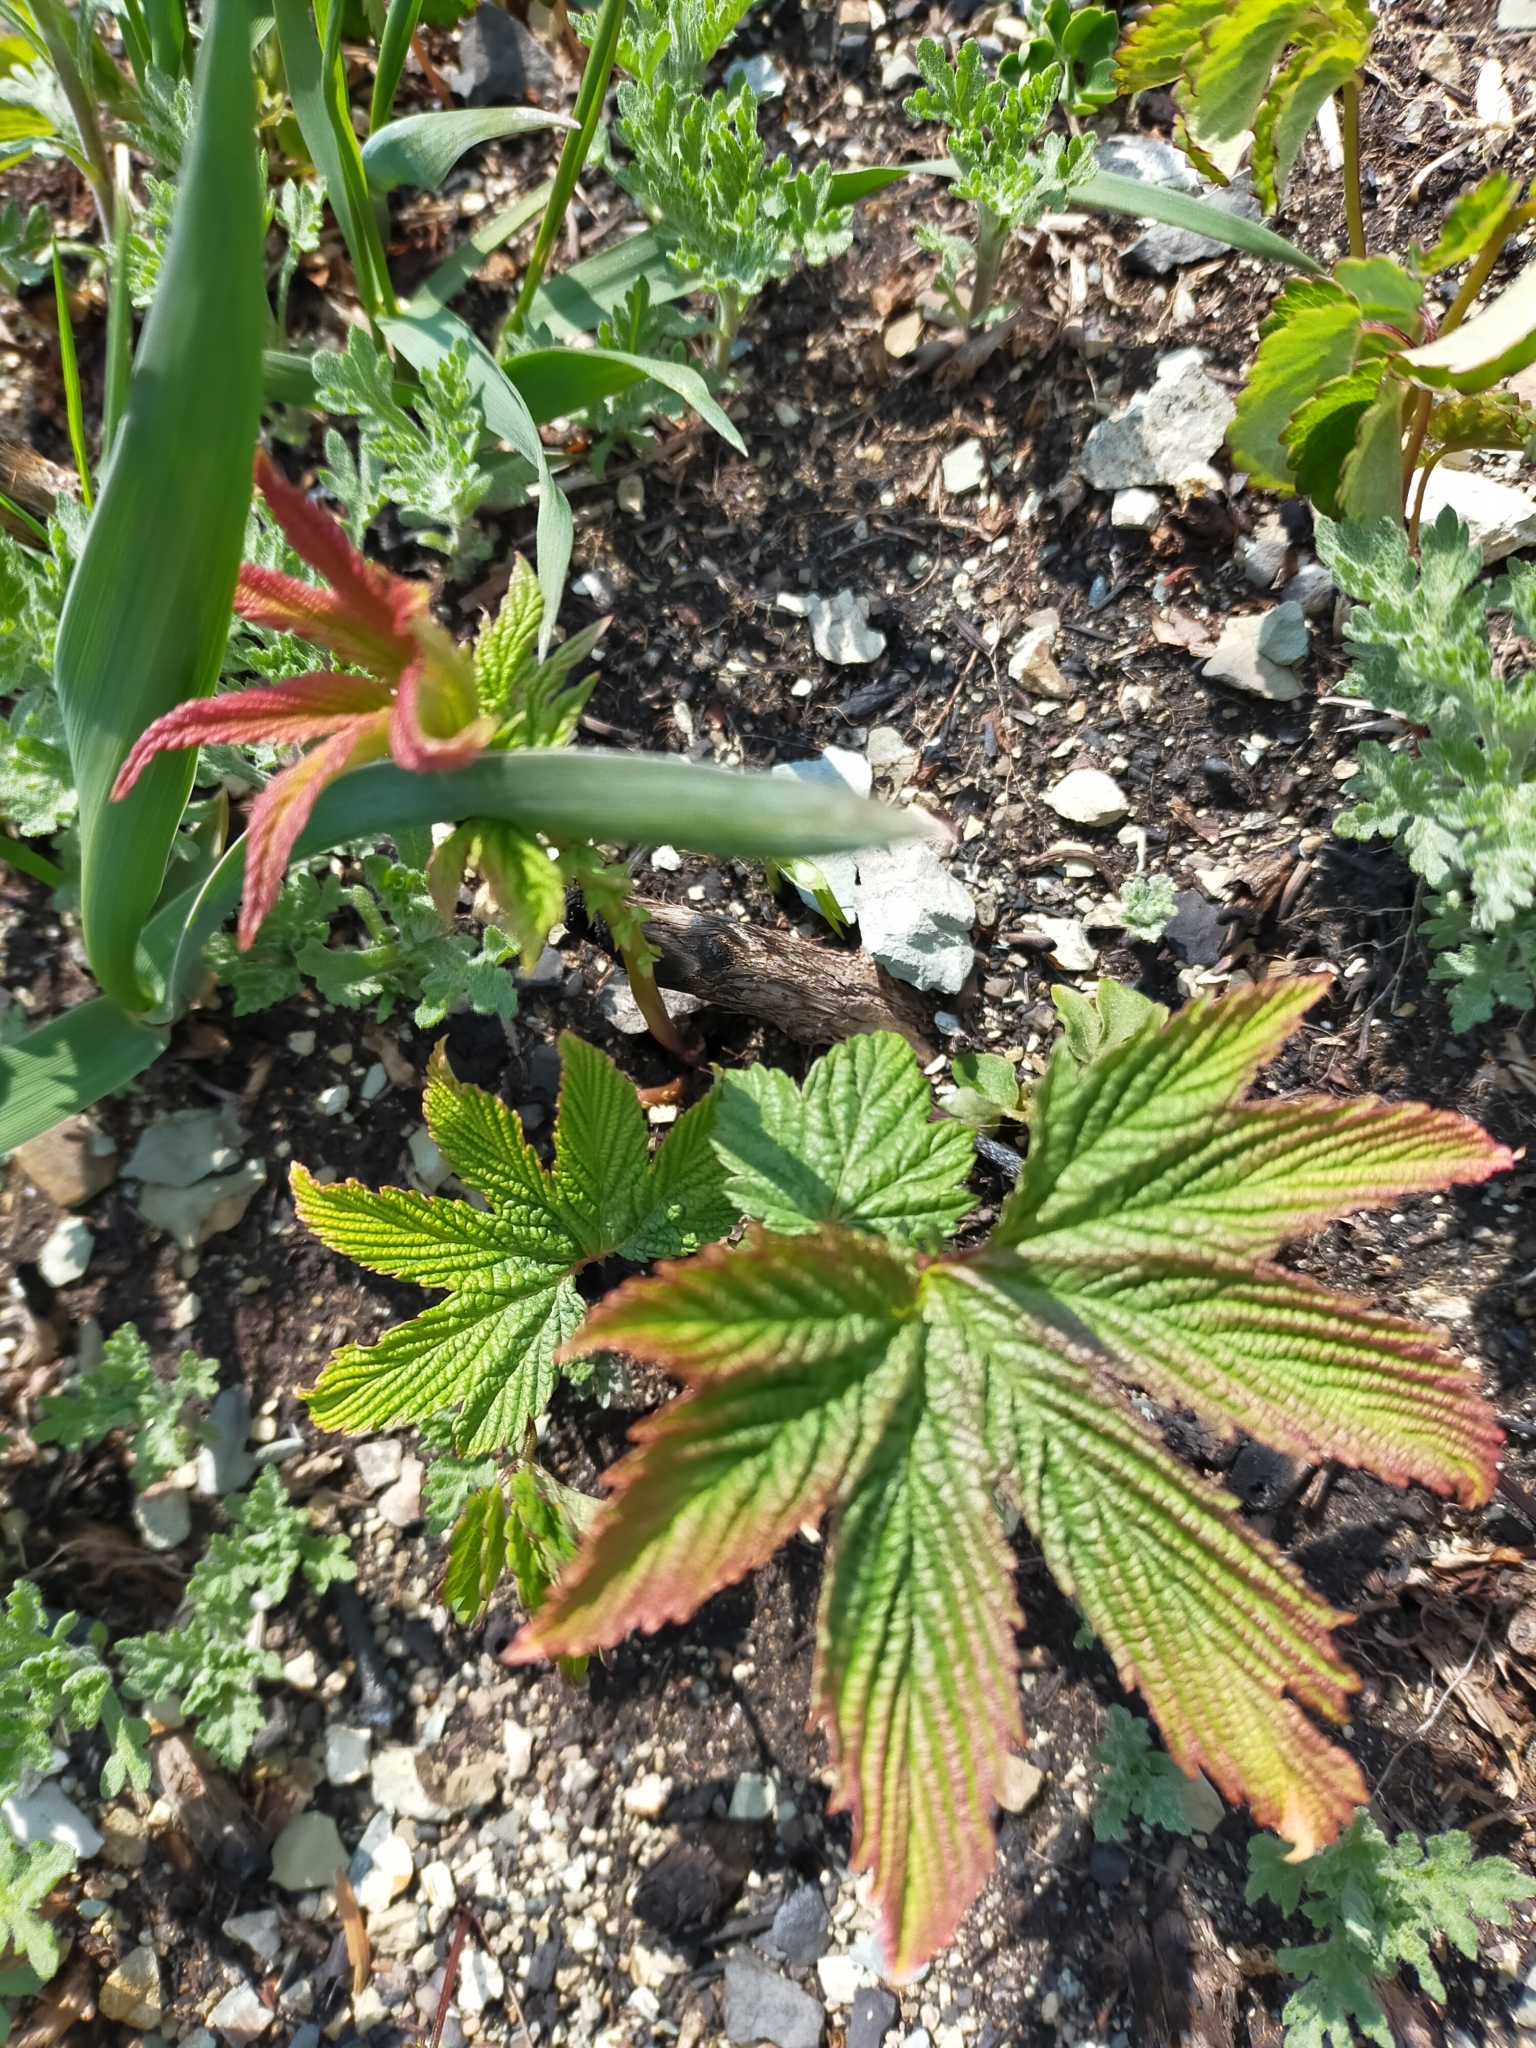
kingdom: Plantae
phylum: Tracheophyta
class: Magnoliopsida
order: Rosales
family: Rosaceae
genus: Filipendula
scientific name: Filipendula digitata
